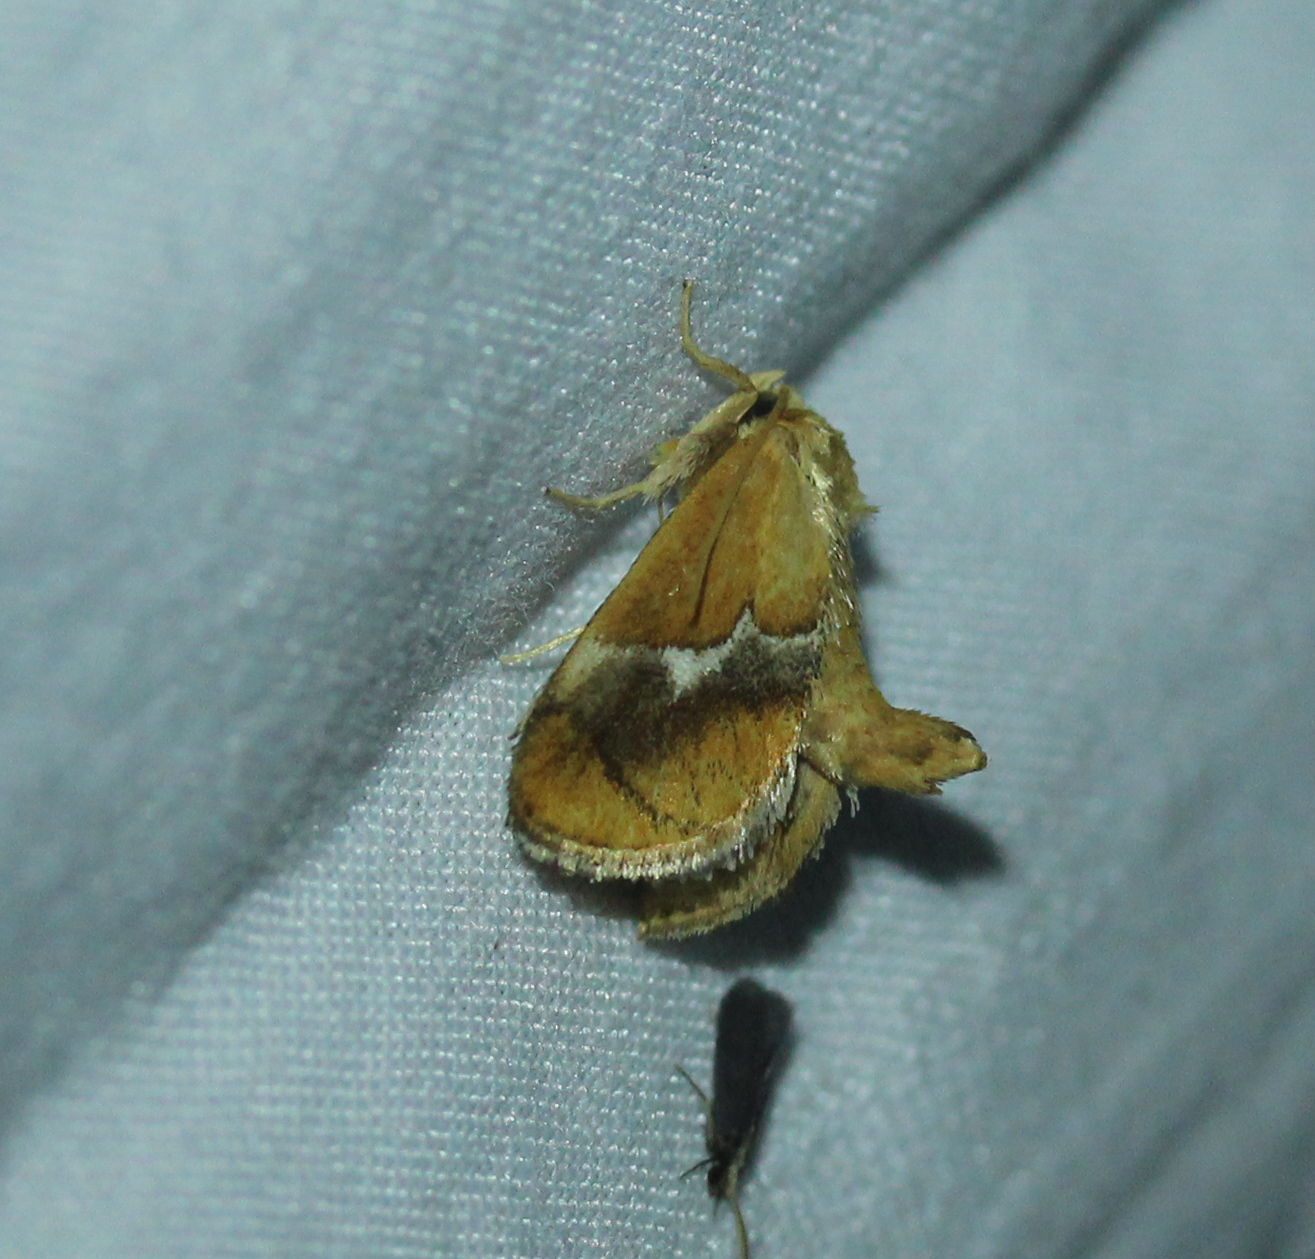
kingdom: Animalia
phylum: Arthropoda
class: Insecta
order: Lepidoptera
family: Limacodidae
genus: Lithacodes
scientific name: Lithacodes fasciola
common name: Yellow-shouldered slug moth
